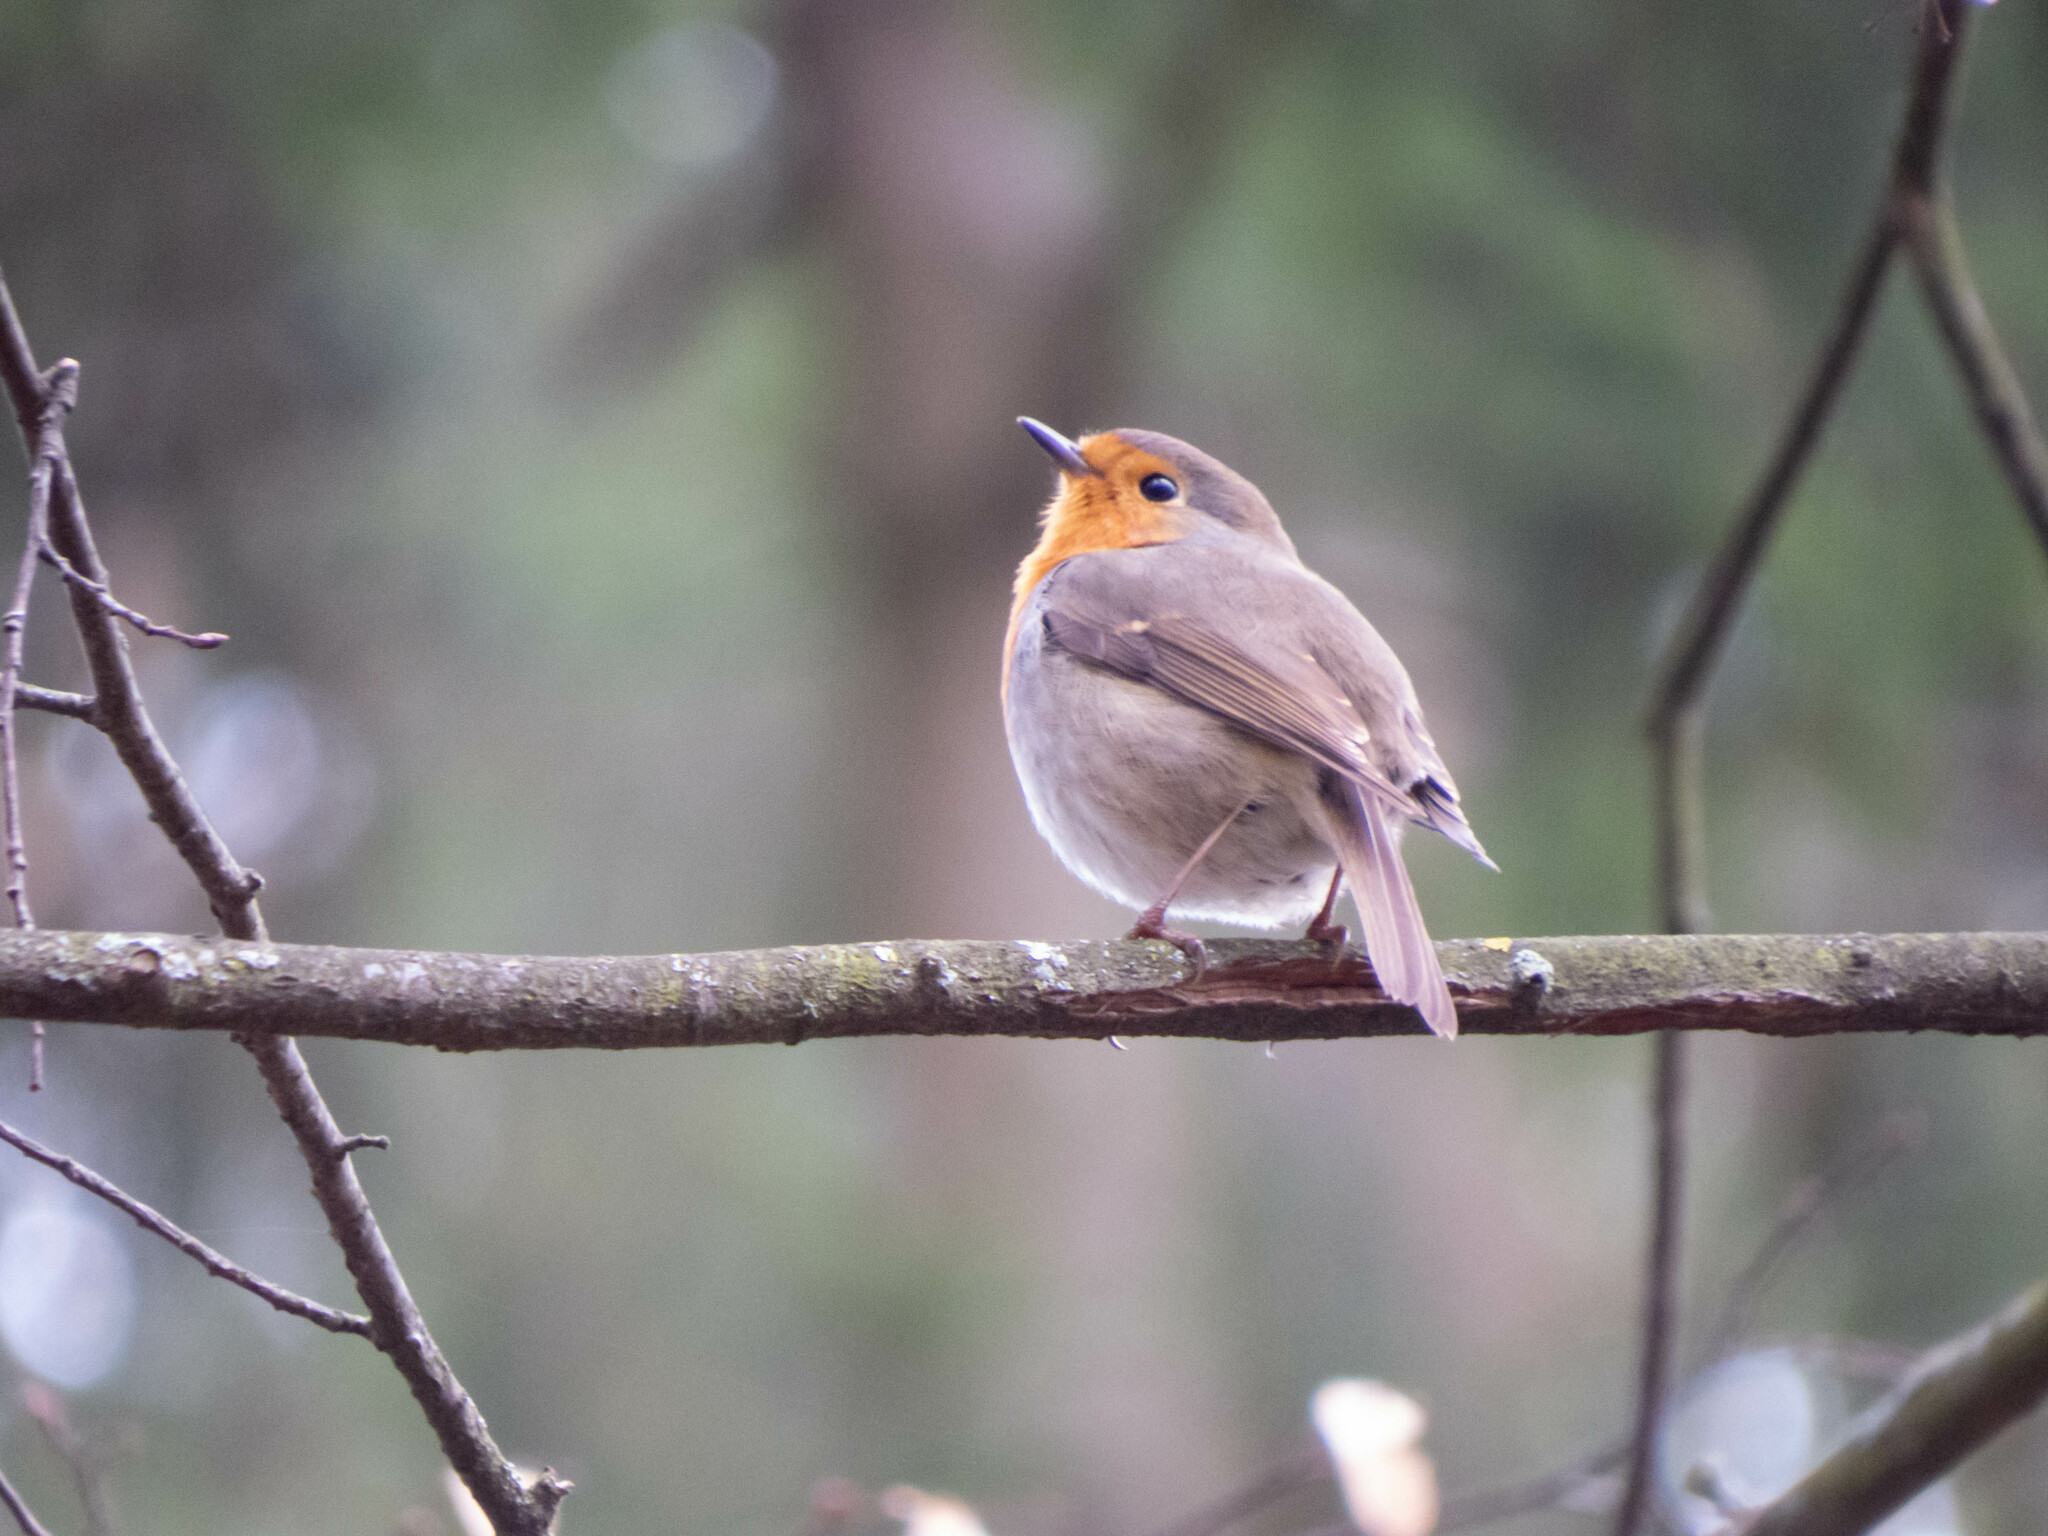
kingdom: Animalia
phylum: Chordata
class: Aves
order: Passeriformes
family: Muscicapidae
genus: Erithacus
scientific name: Erithacus rubecula
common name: European robin
